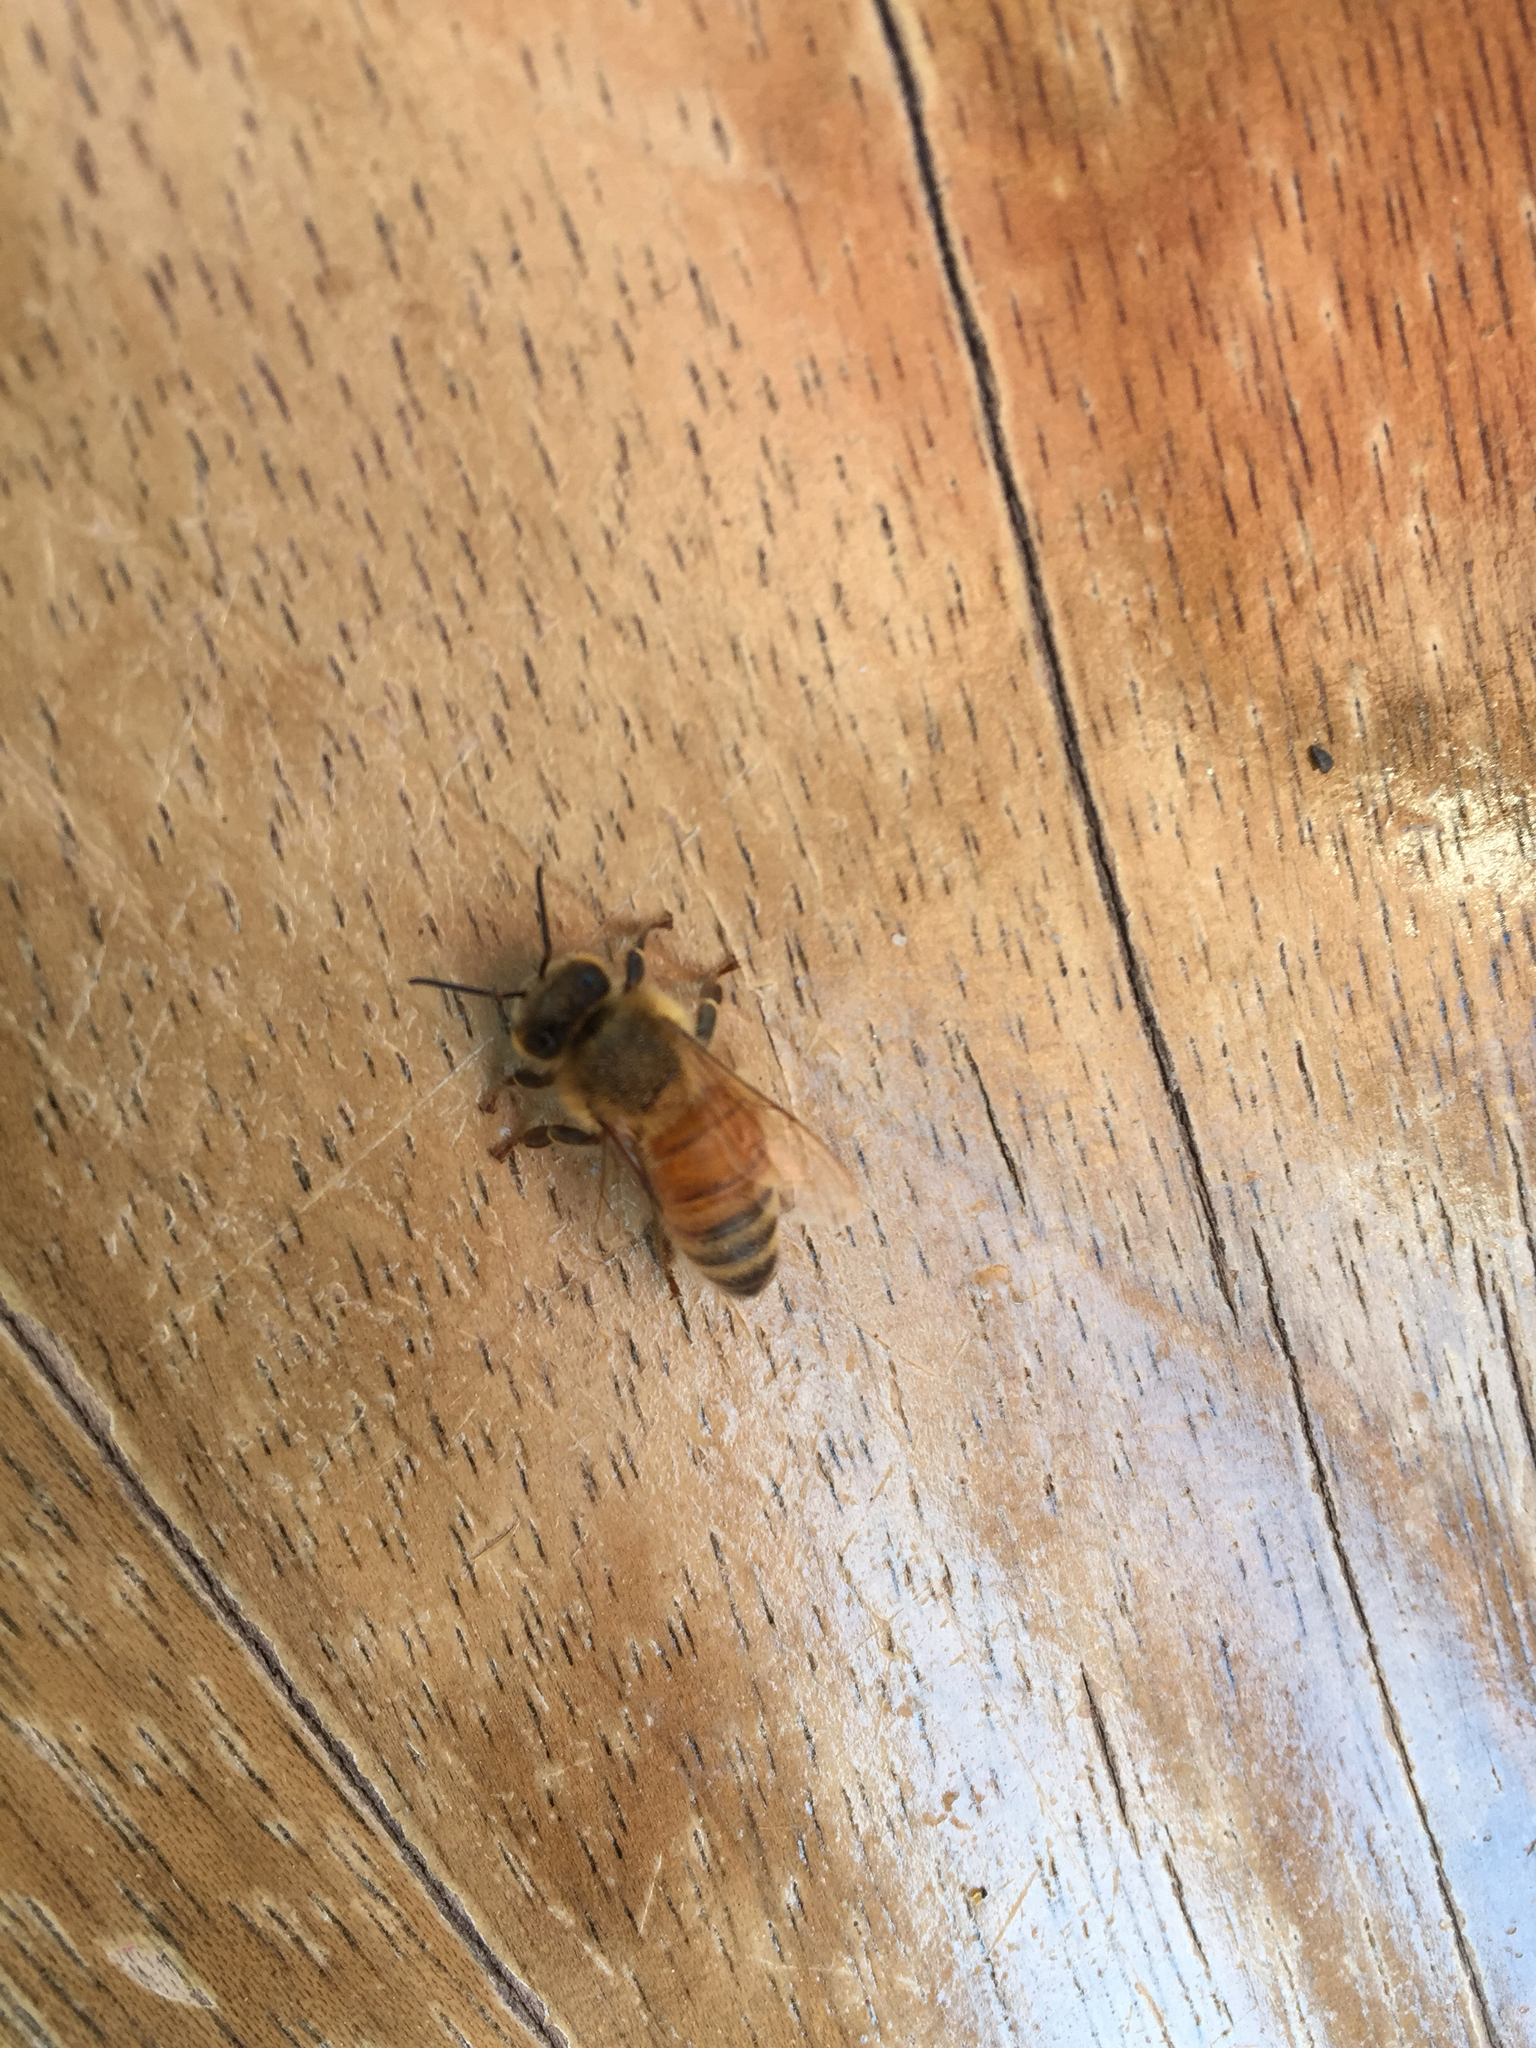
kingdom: Animalia
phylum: Arthropoda
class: Insecta
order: Hymenoptera
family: Apidae
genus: Apis
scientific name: Apis mellifera
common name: Honey bee
